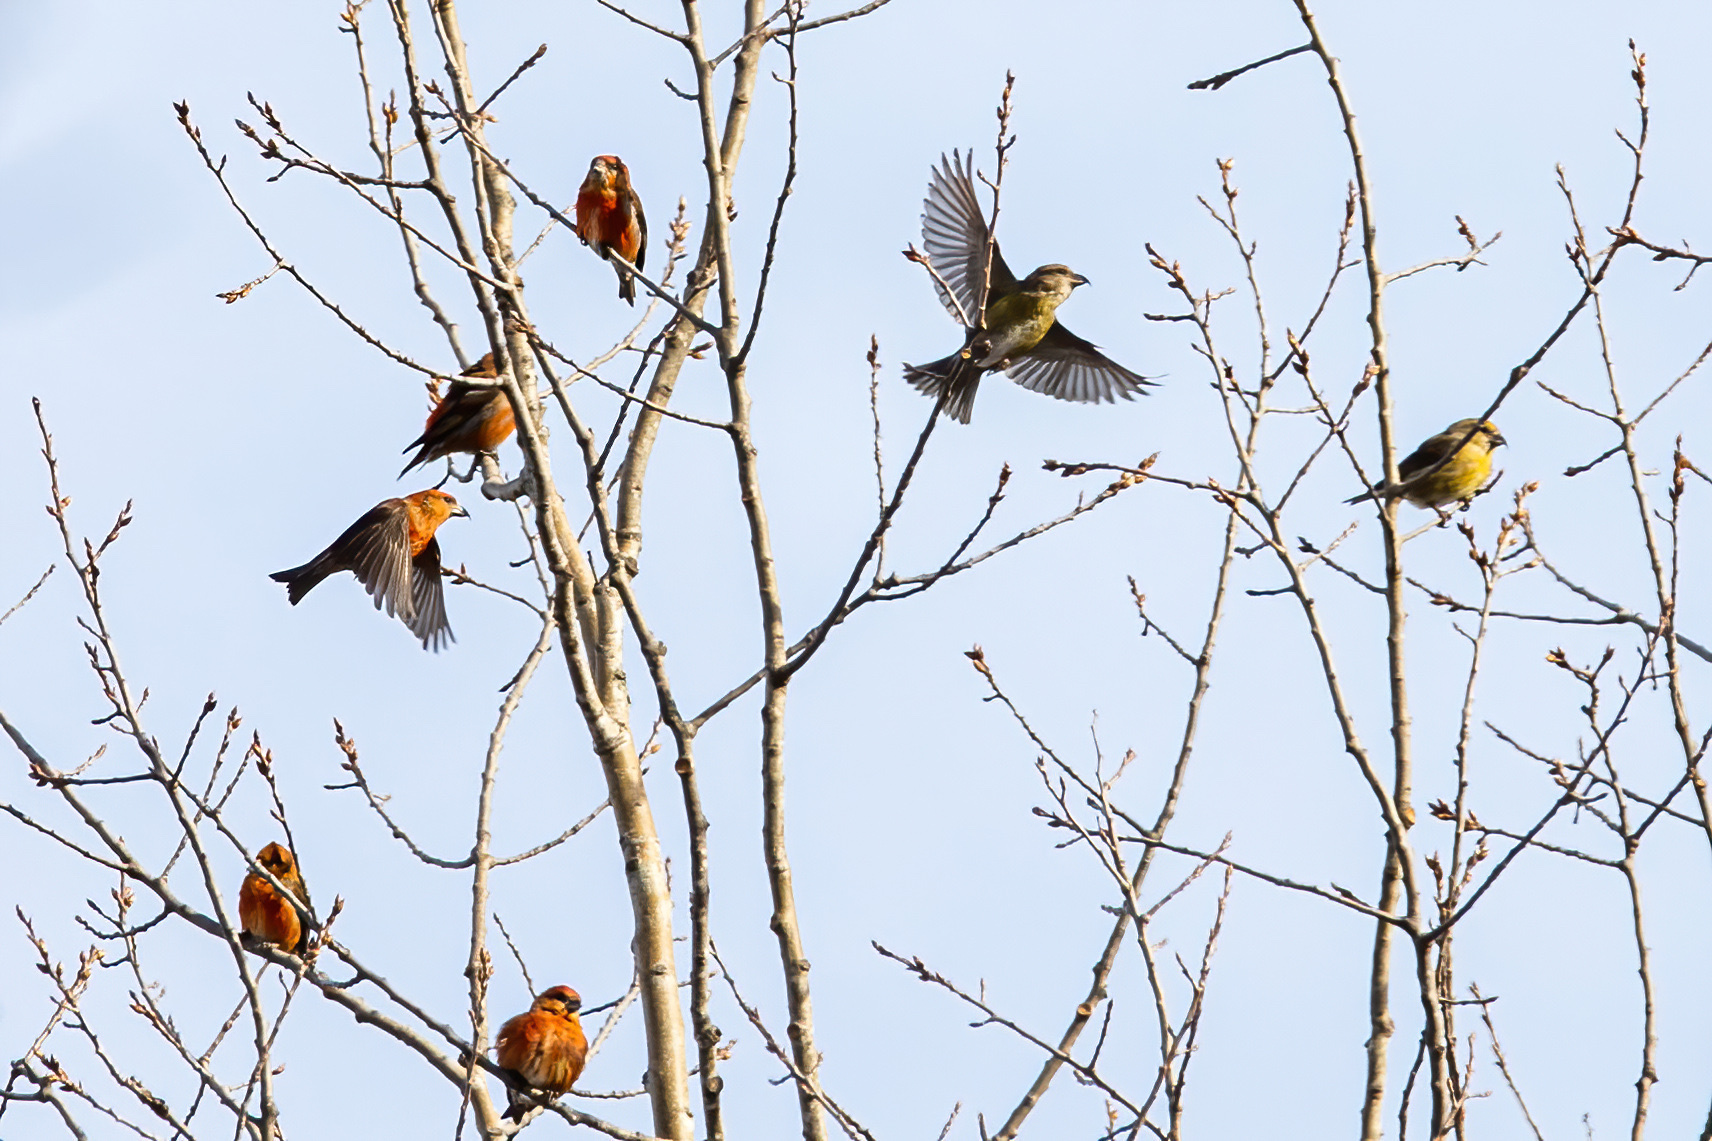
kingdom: Animalia
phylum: Chordata
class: Aves
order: Passeriformes
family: Fringillidae
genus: Loxia
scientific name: Loxia curvirostra
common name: Red crossbill
